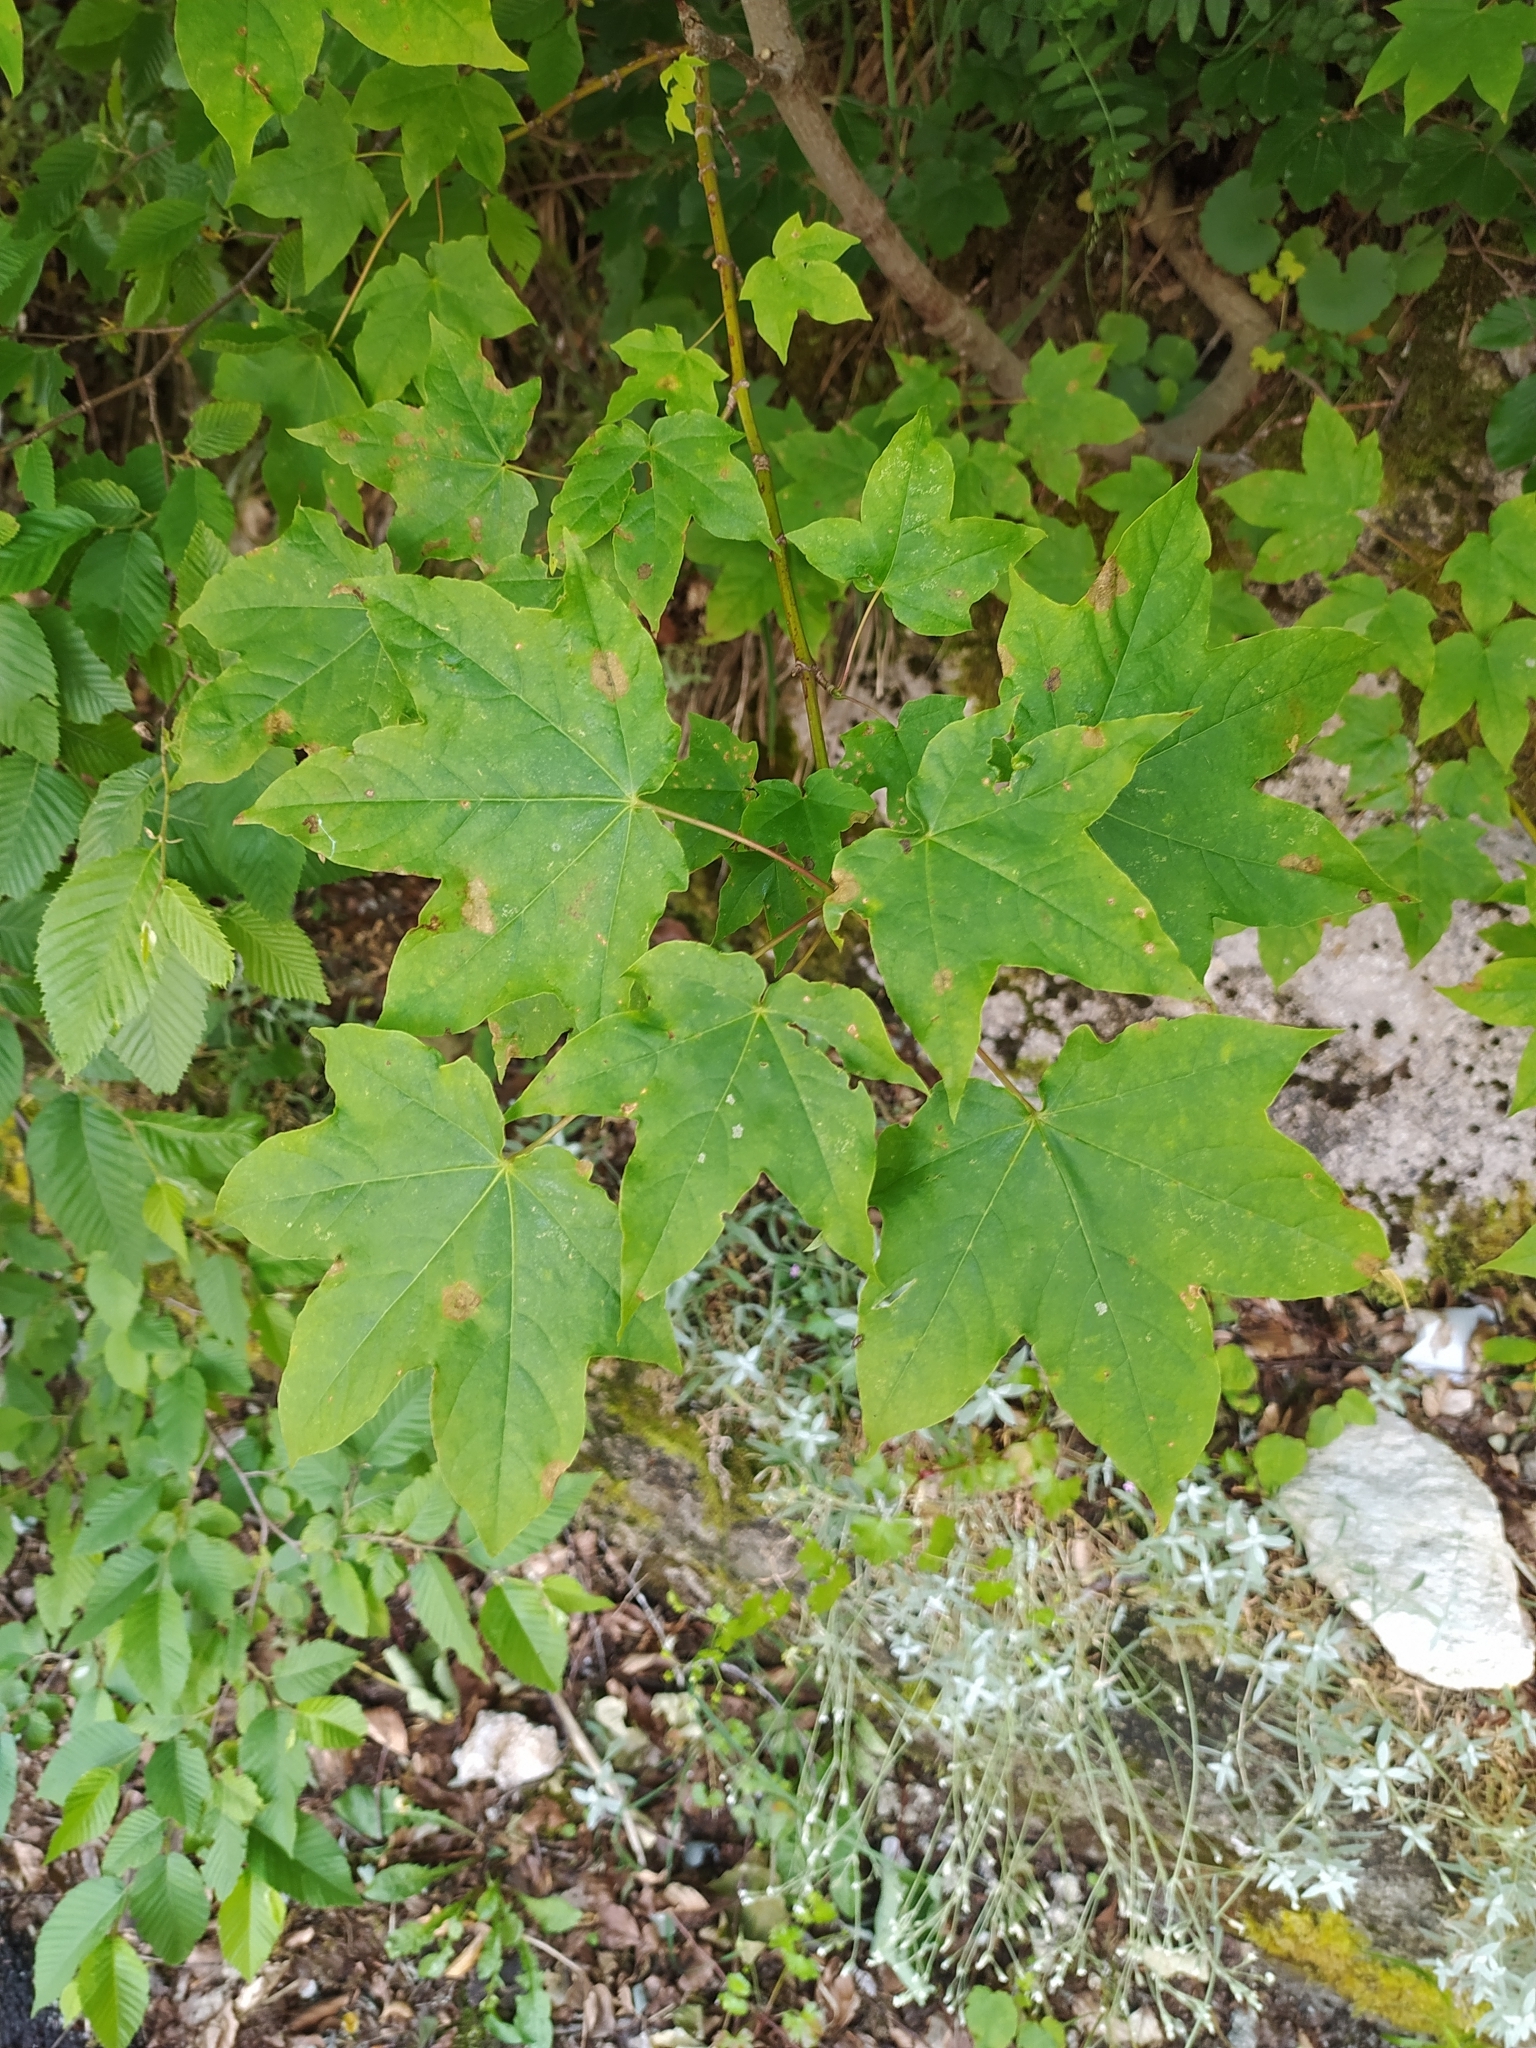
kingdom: Plantae
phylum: Tracheophyta
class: Magnoliopsida
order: Sapindales
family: Sapindaceae
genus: Acer
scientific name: Acer lobelii
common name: Lobel's maple
